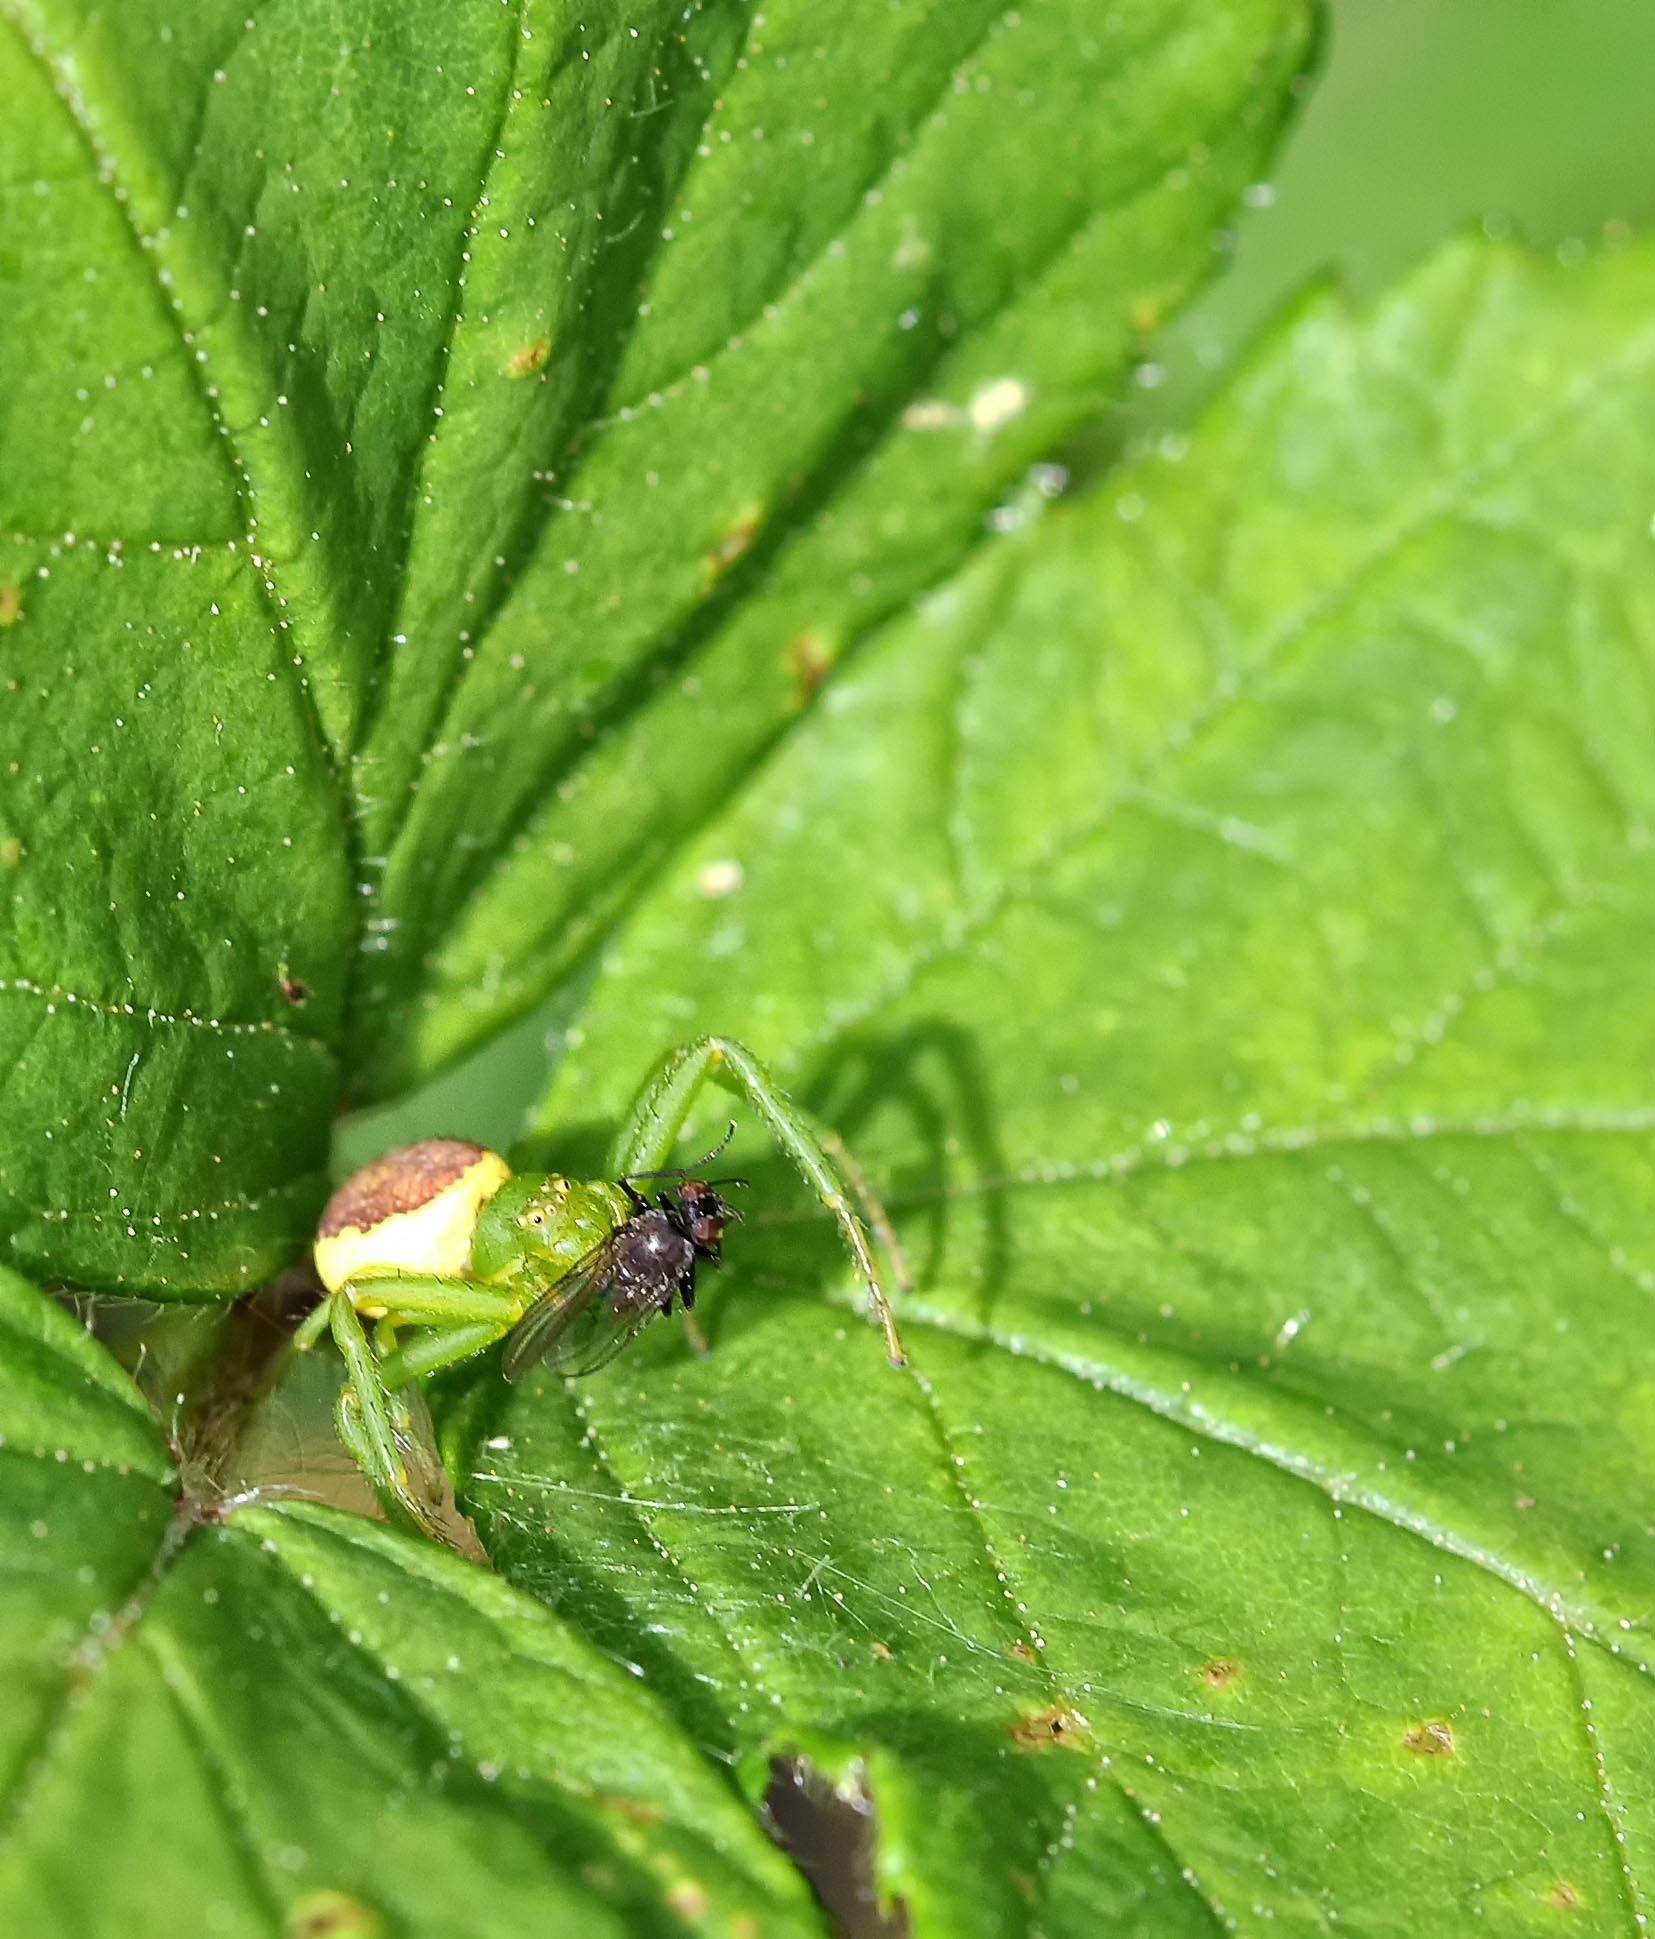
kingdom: Animalia
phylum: Arthropoda
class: Arachnida
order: Araneae
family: Thomisidae
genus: Diaea
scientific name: Diaea dorsata
